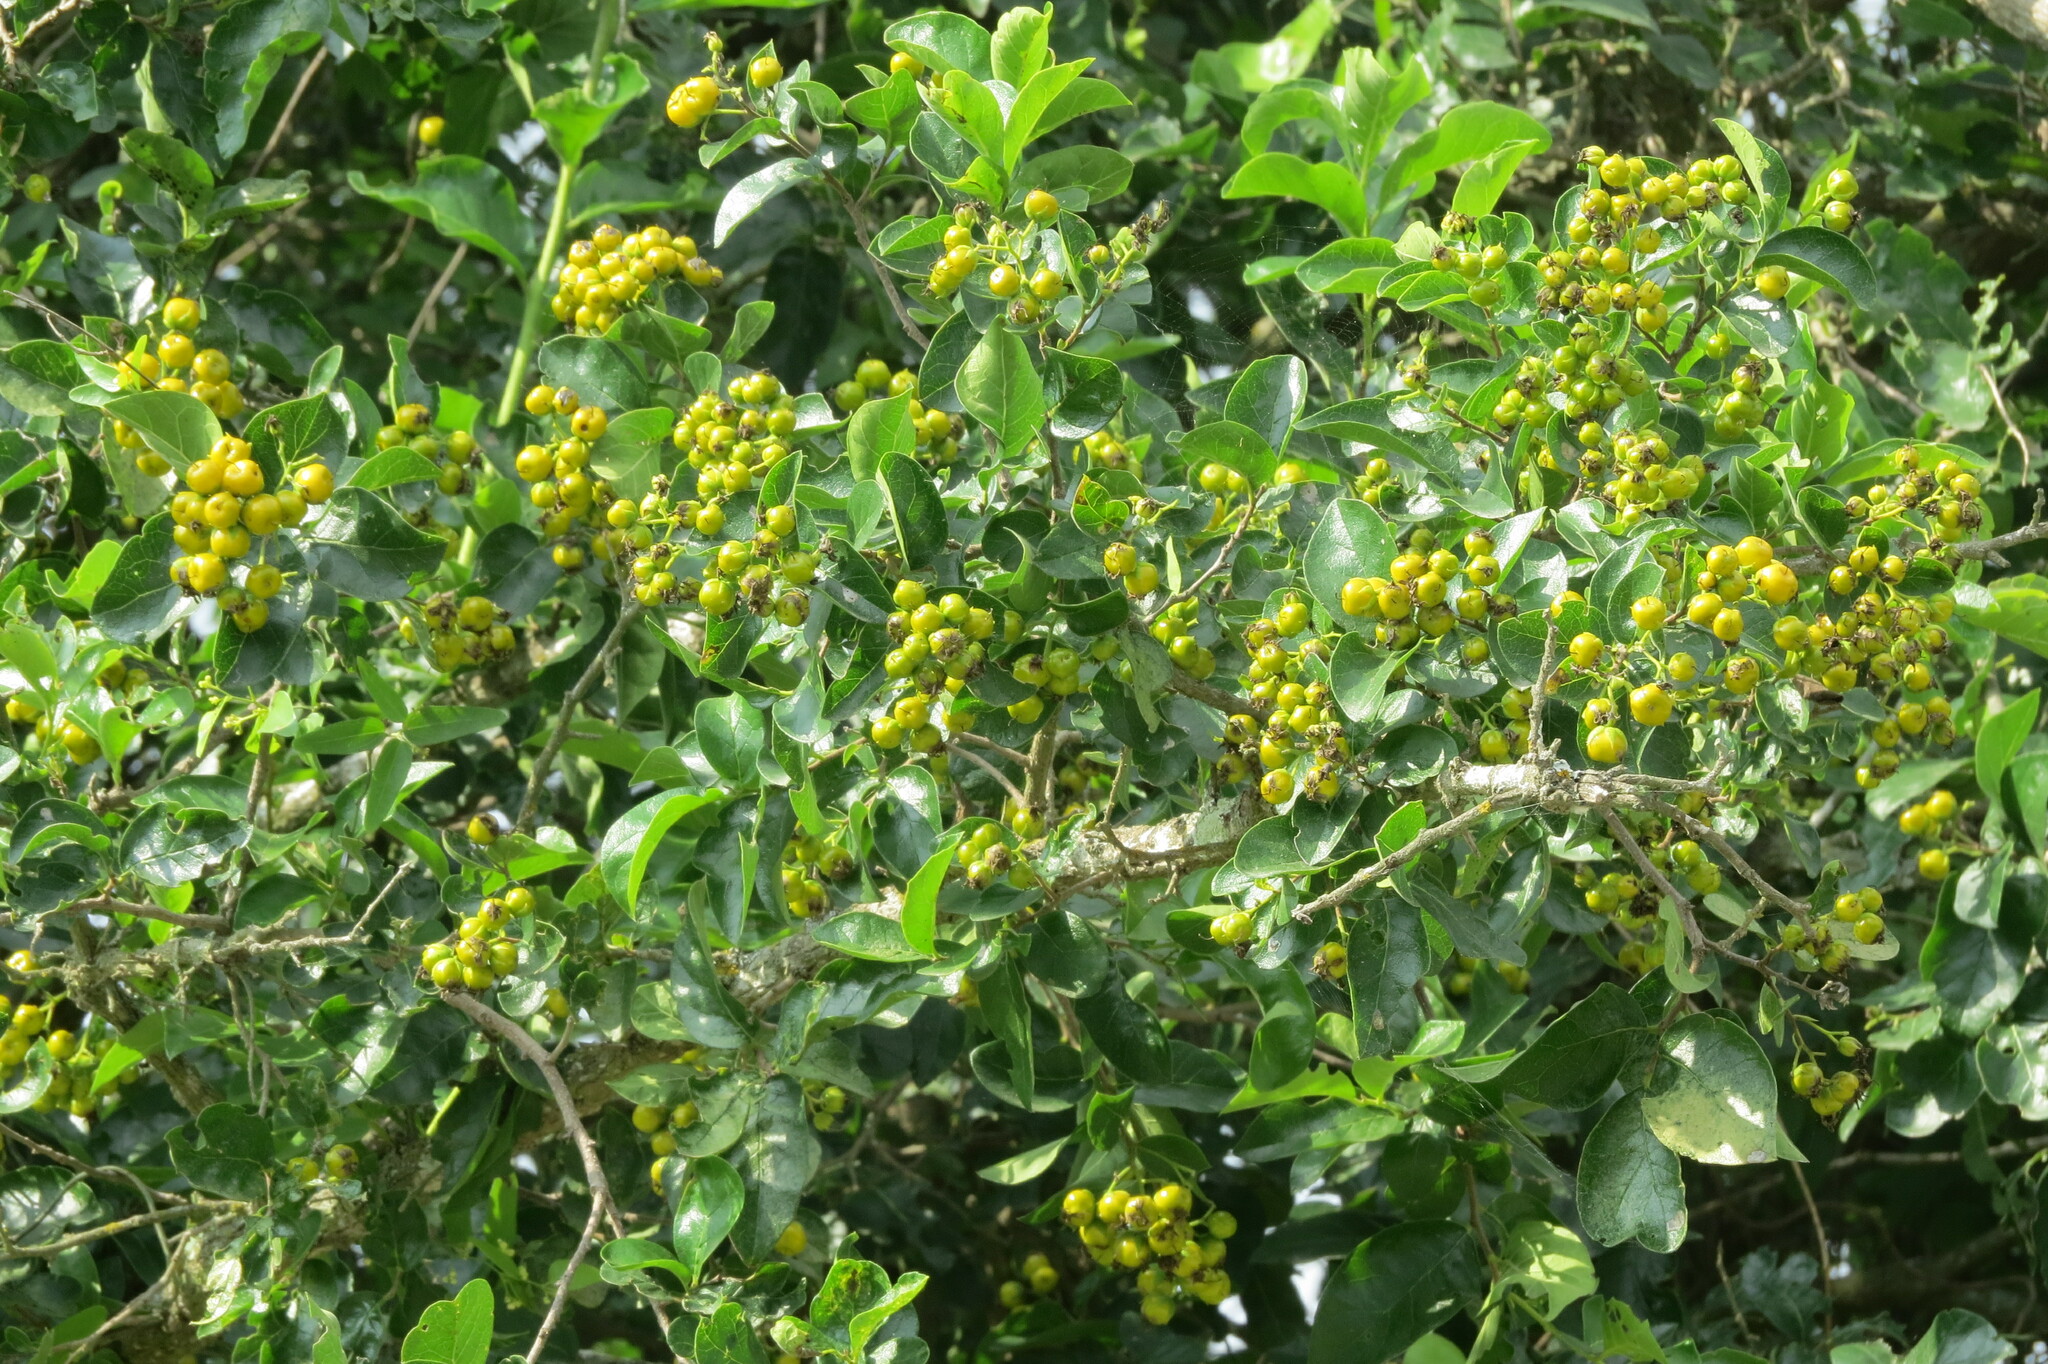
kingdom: Plantae
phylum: Tracheophyta
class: Magnoliopsida
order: Boraginales
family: Ehretiaceae
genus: Ehretia
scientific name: Ehretia anacua
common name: Sugarberry
